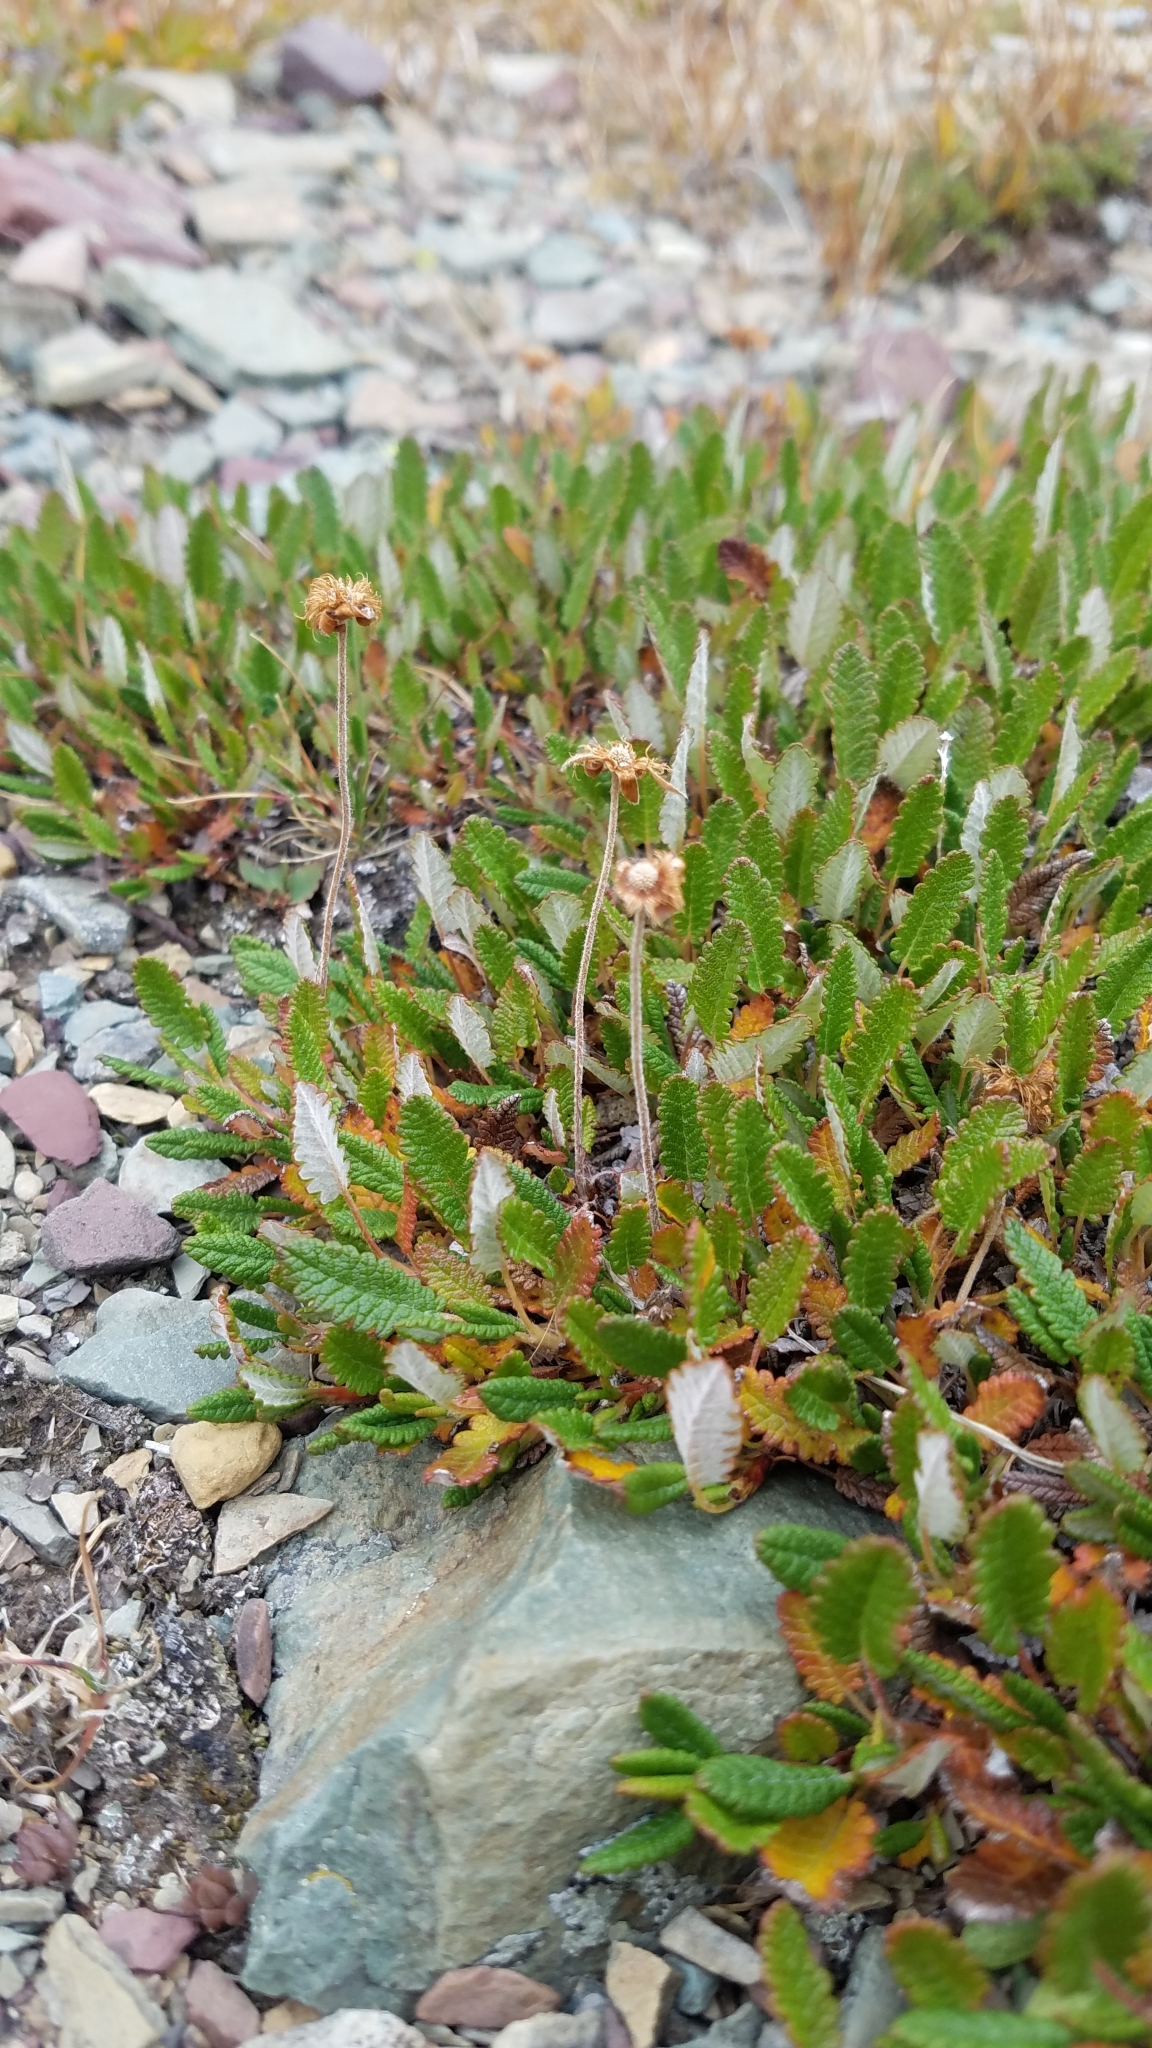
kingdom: Plantae
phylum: Tracheophyta
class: Magnoliopsida
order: Rosales
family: Rosaceae
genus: Dryas
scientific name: Dryas octopetala
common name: Eight-petal mountain-avens
